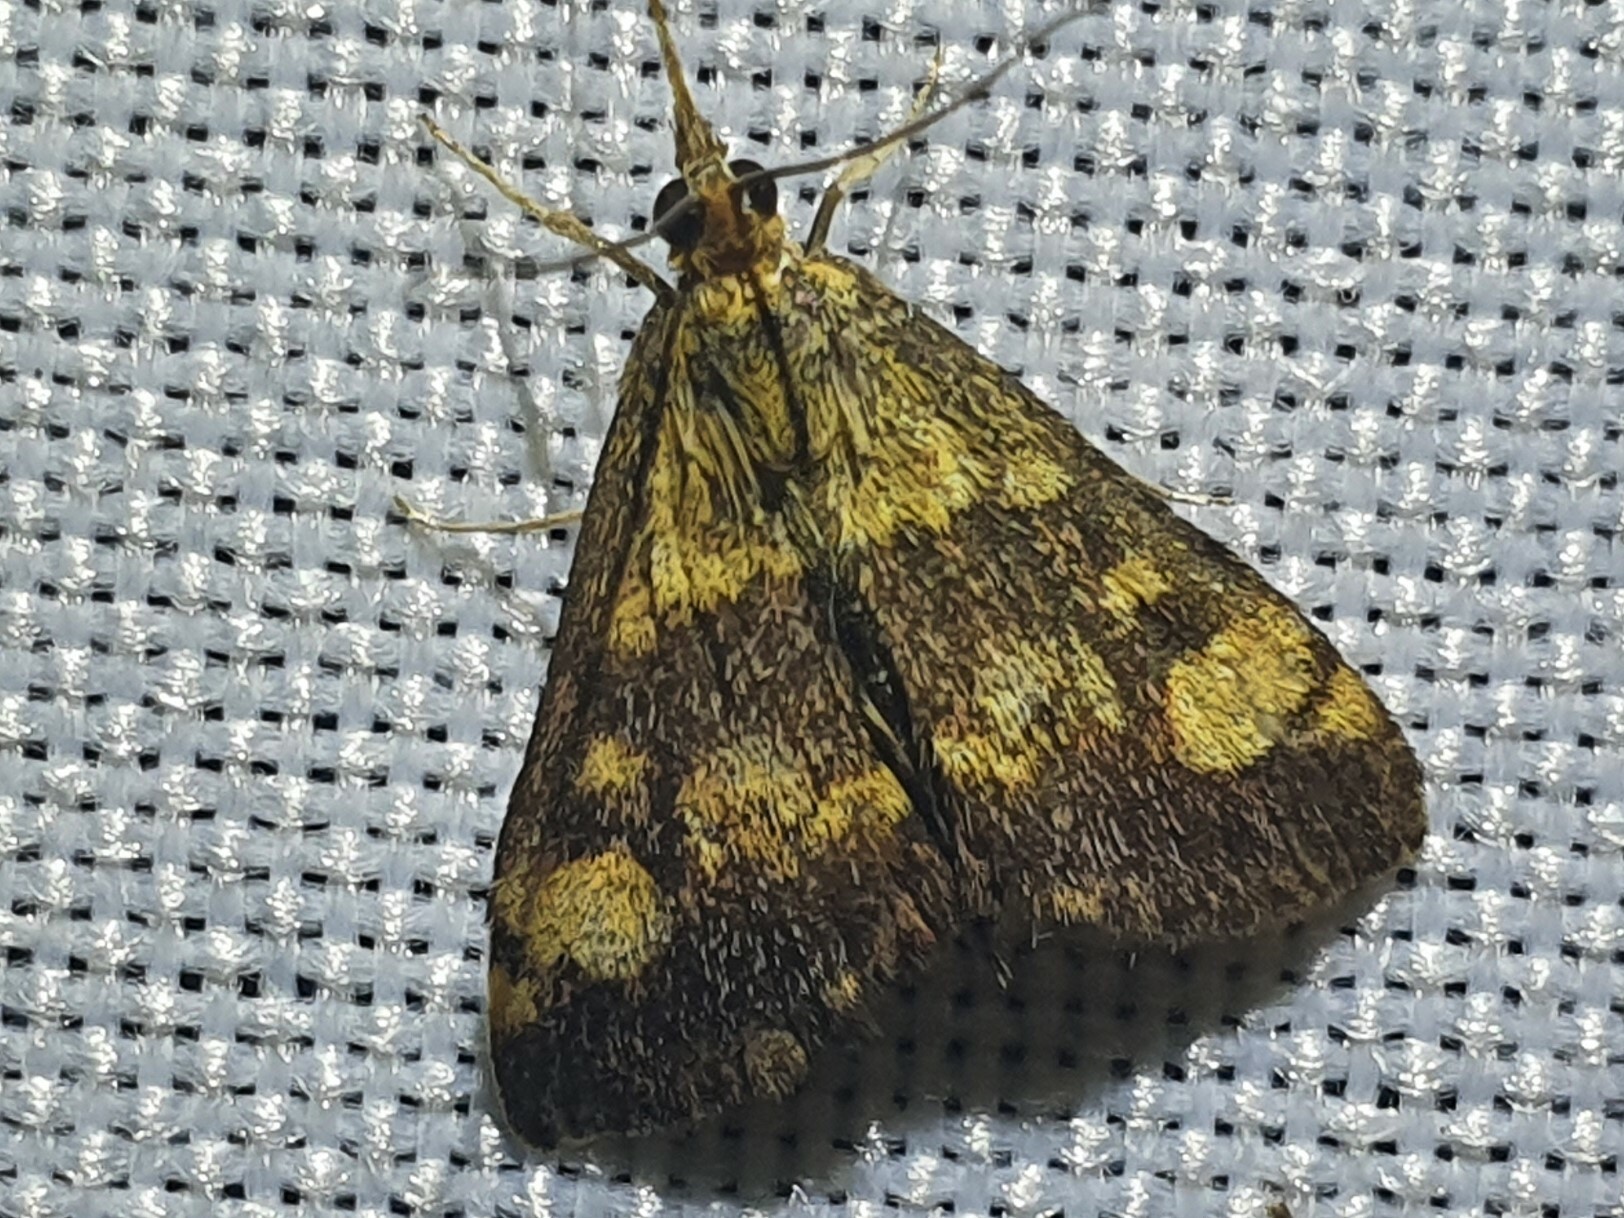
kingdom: Animalia
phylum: Arthropoda
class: Insecta
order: Lepidoptera
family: Crambidae
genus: Pyrausta
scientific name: Pyrausta aurata
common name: Small purple & gold
